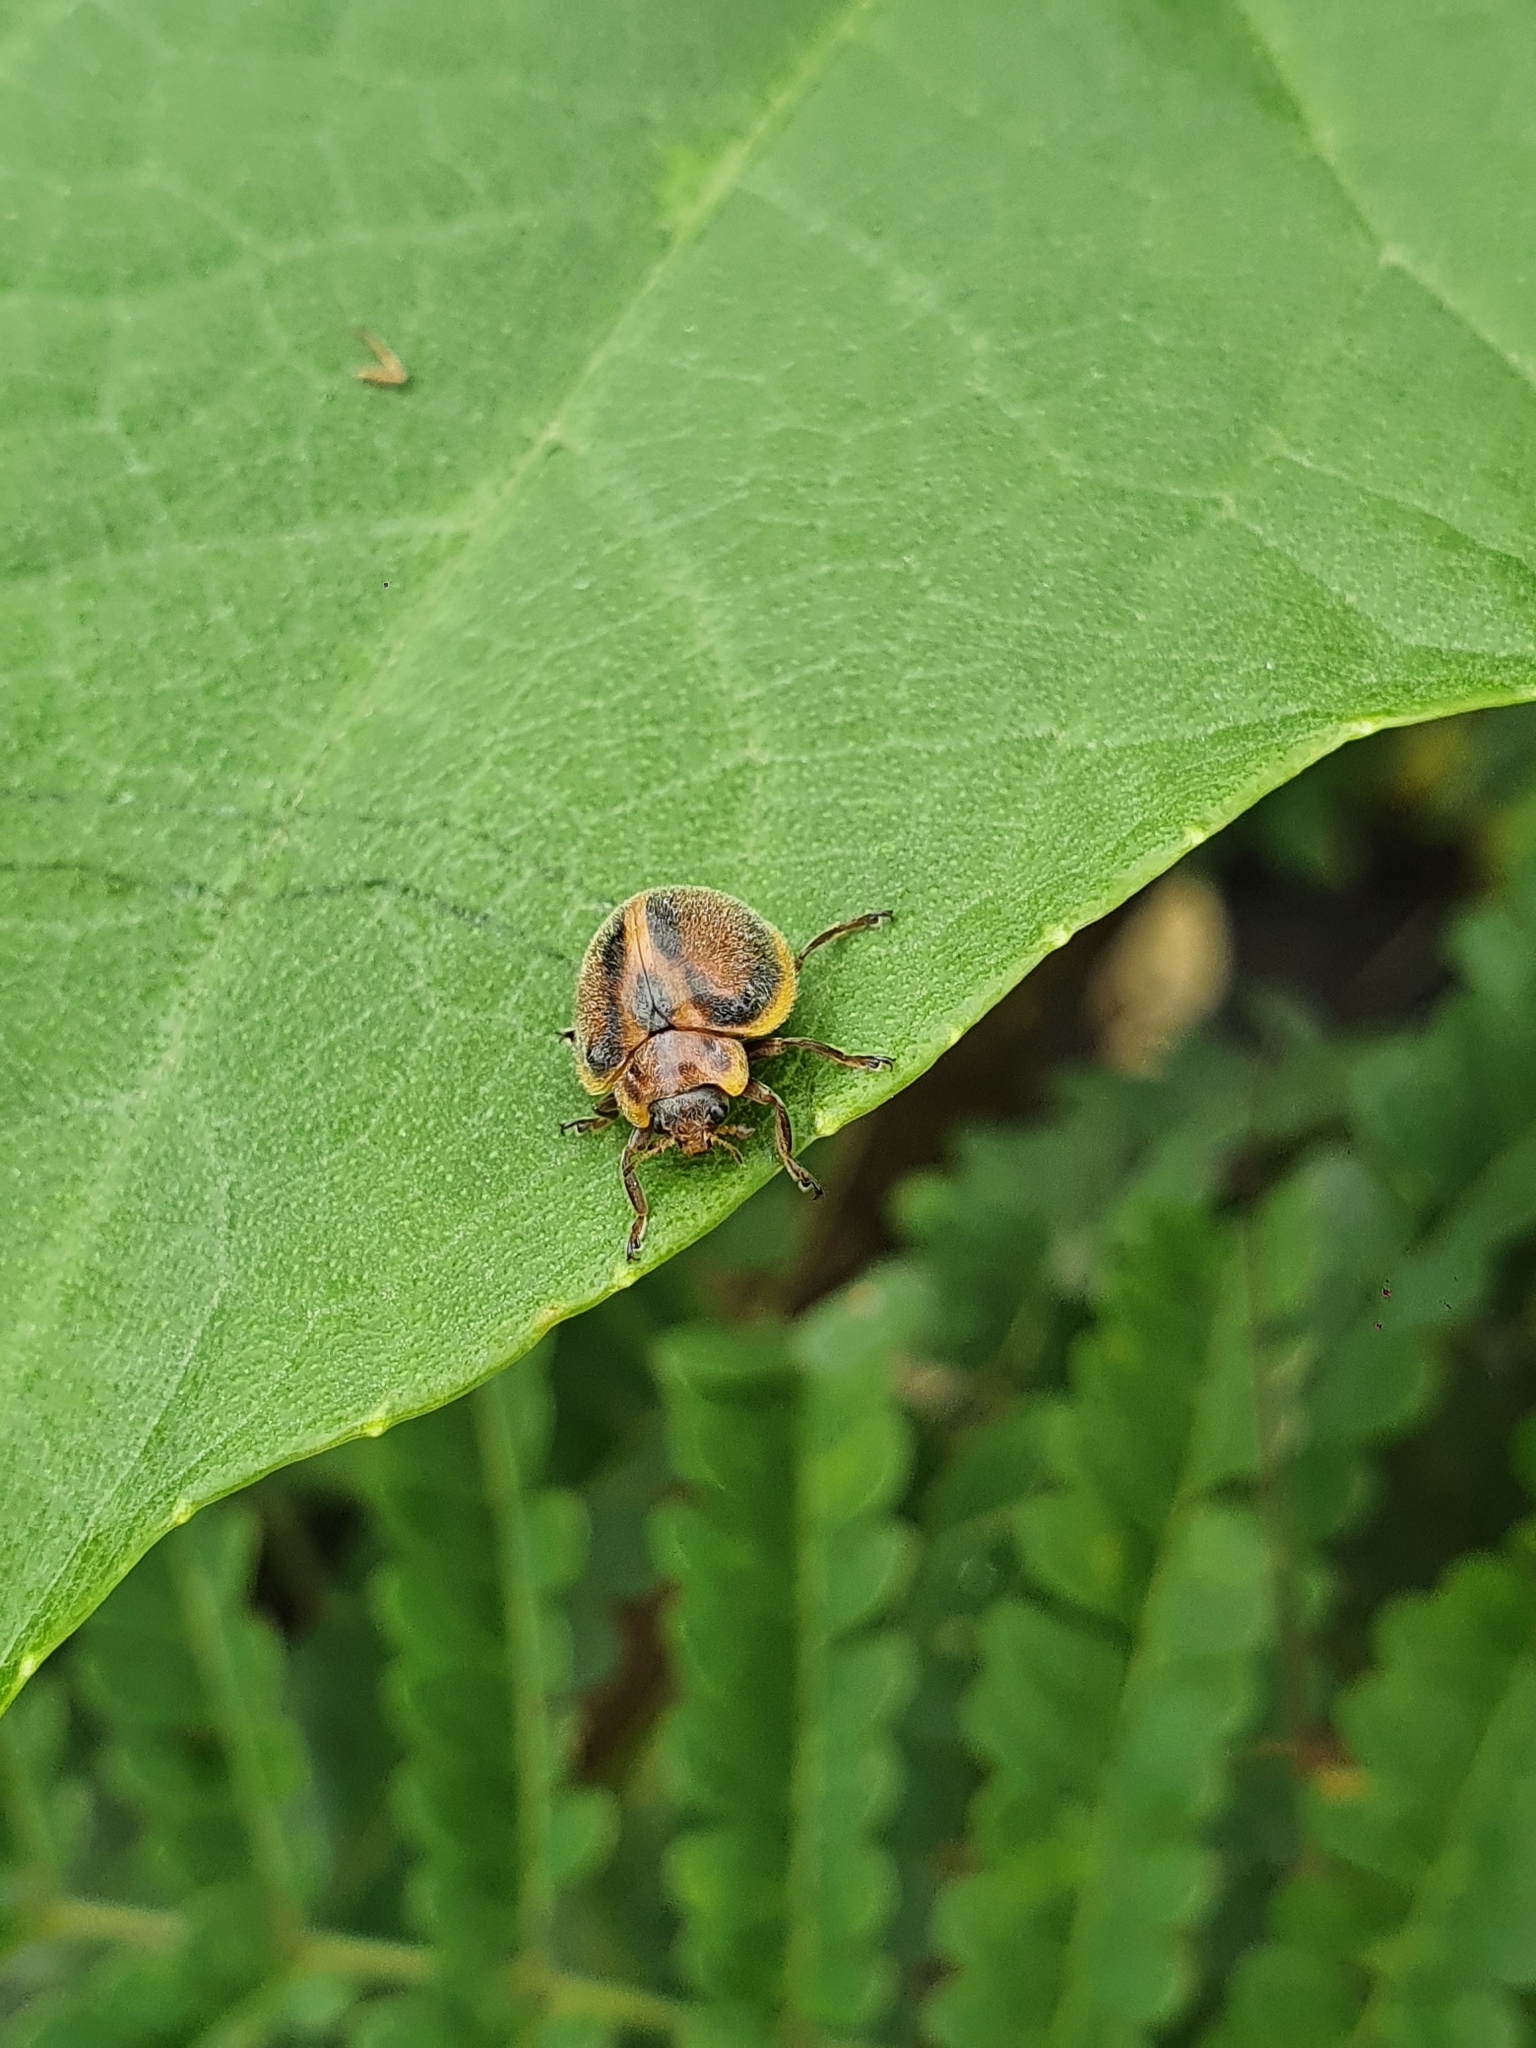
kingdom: Animalia
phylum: Arthropoda
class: Insecta
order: Coleoptera
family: Coccinellidae
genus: Epilachna
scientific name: Epilachna
